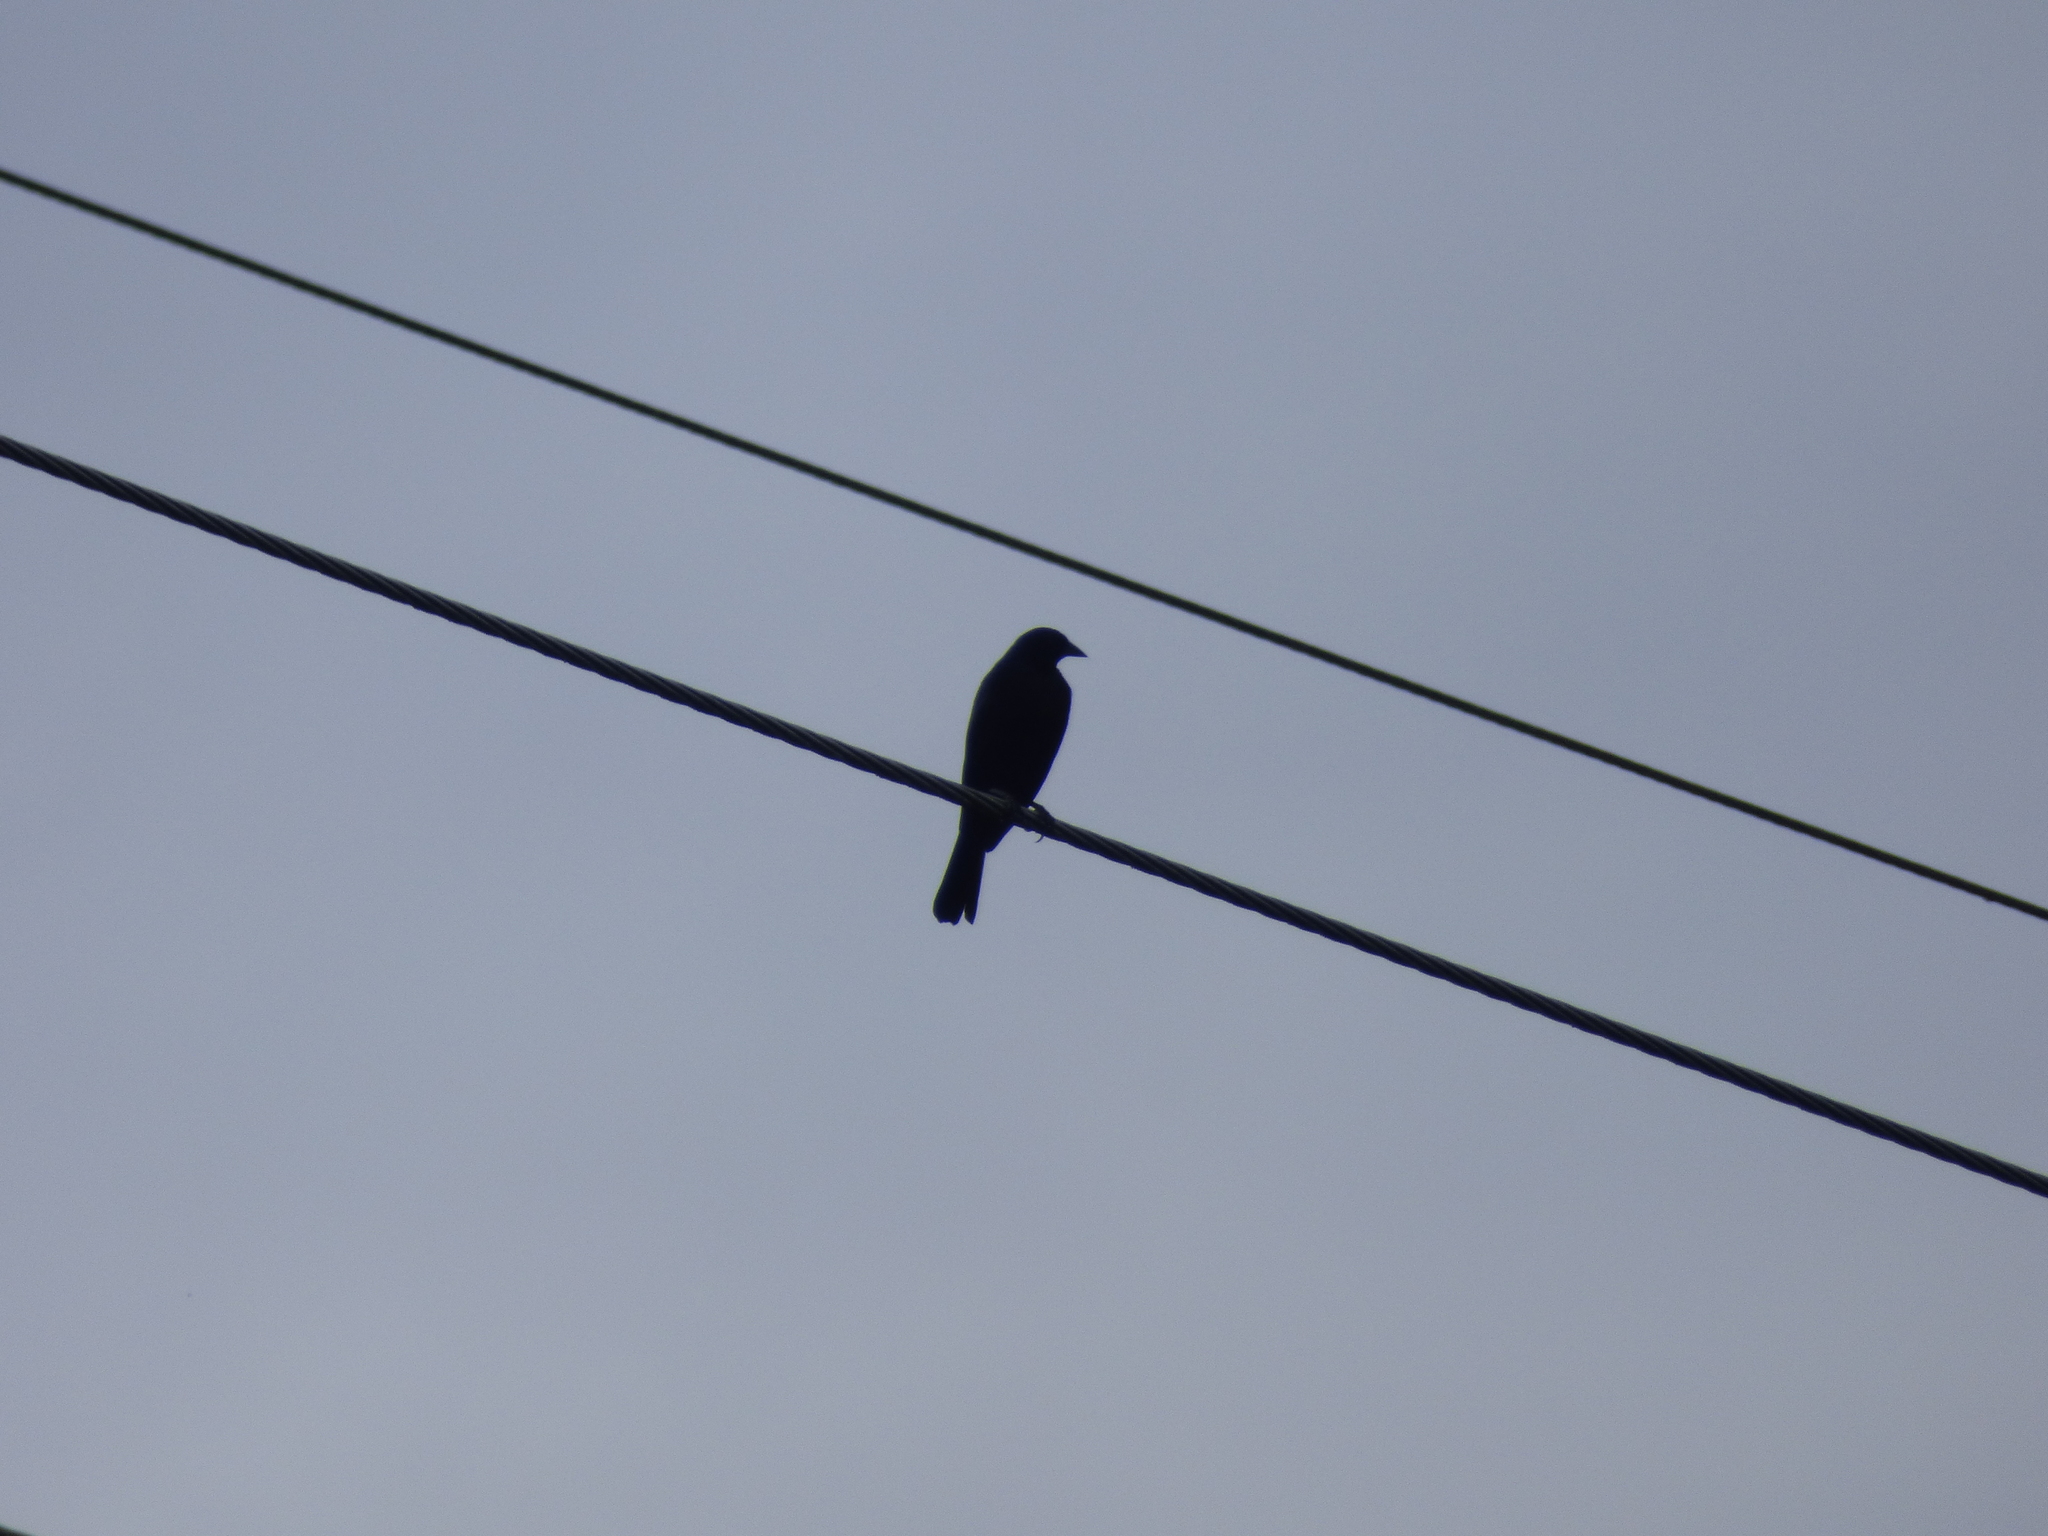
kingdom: Animalia
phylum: Chordata
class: Aves
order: Passeriformes
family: Icteridae
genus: Molothrus
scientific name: Molothrus oryzivorus
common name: Giant cowbird
